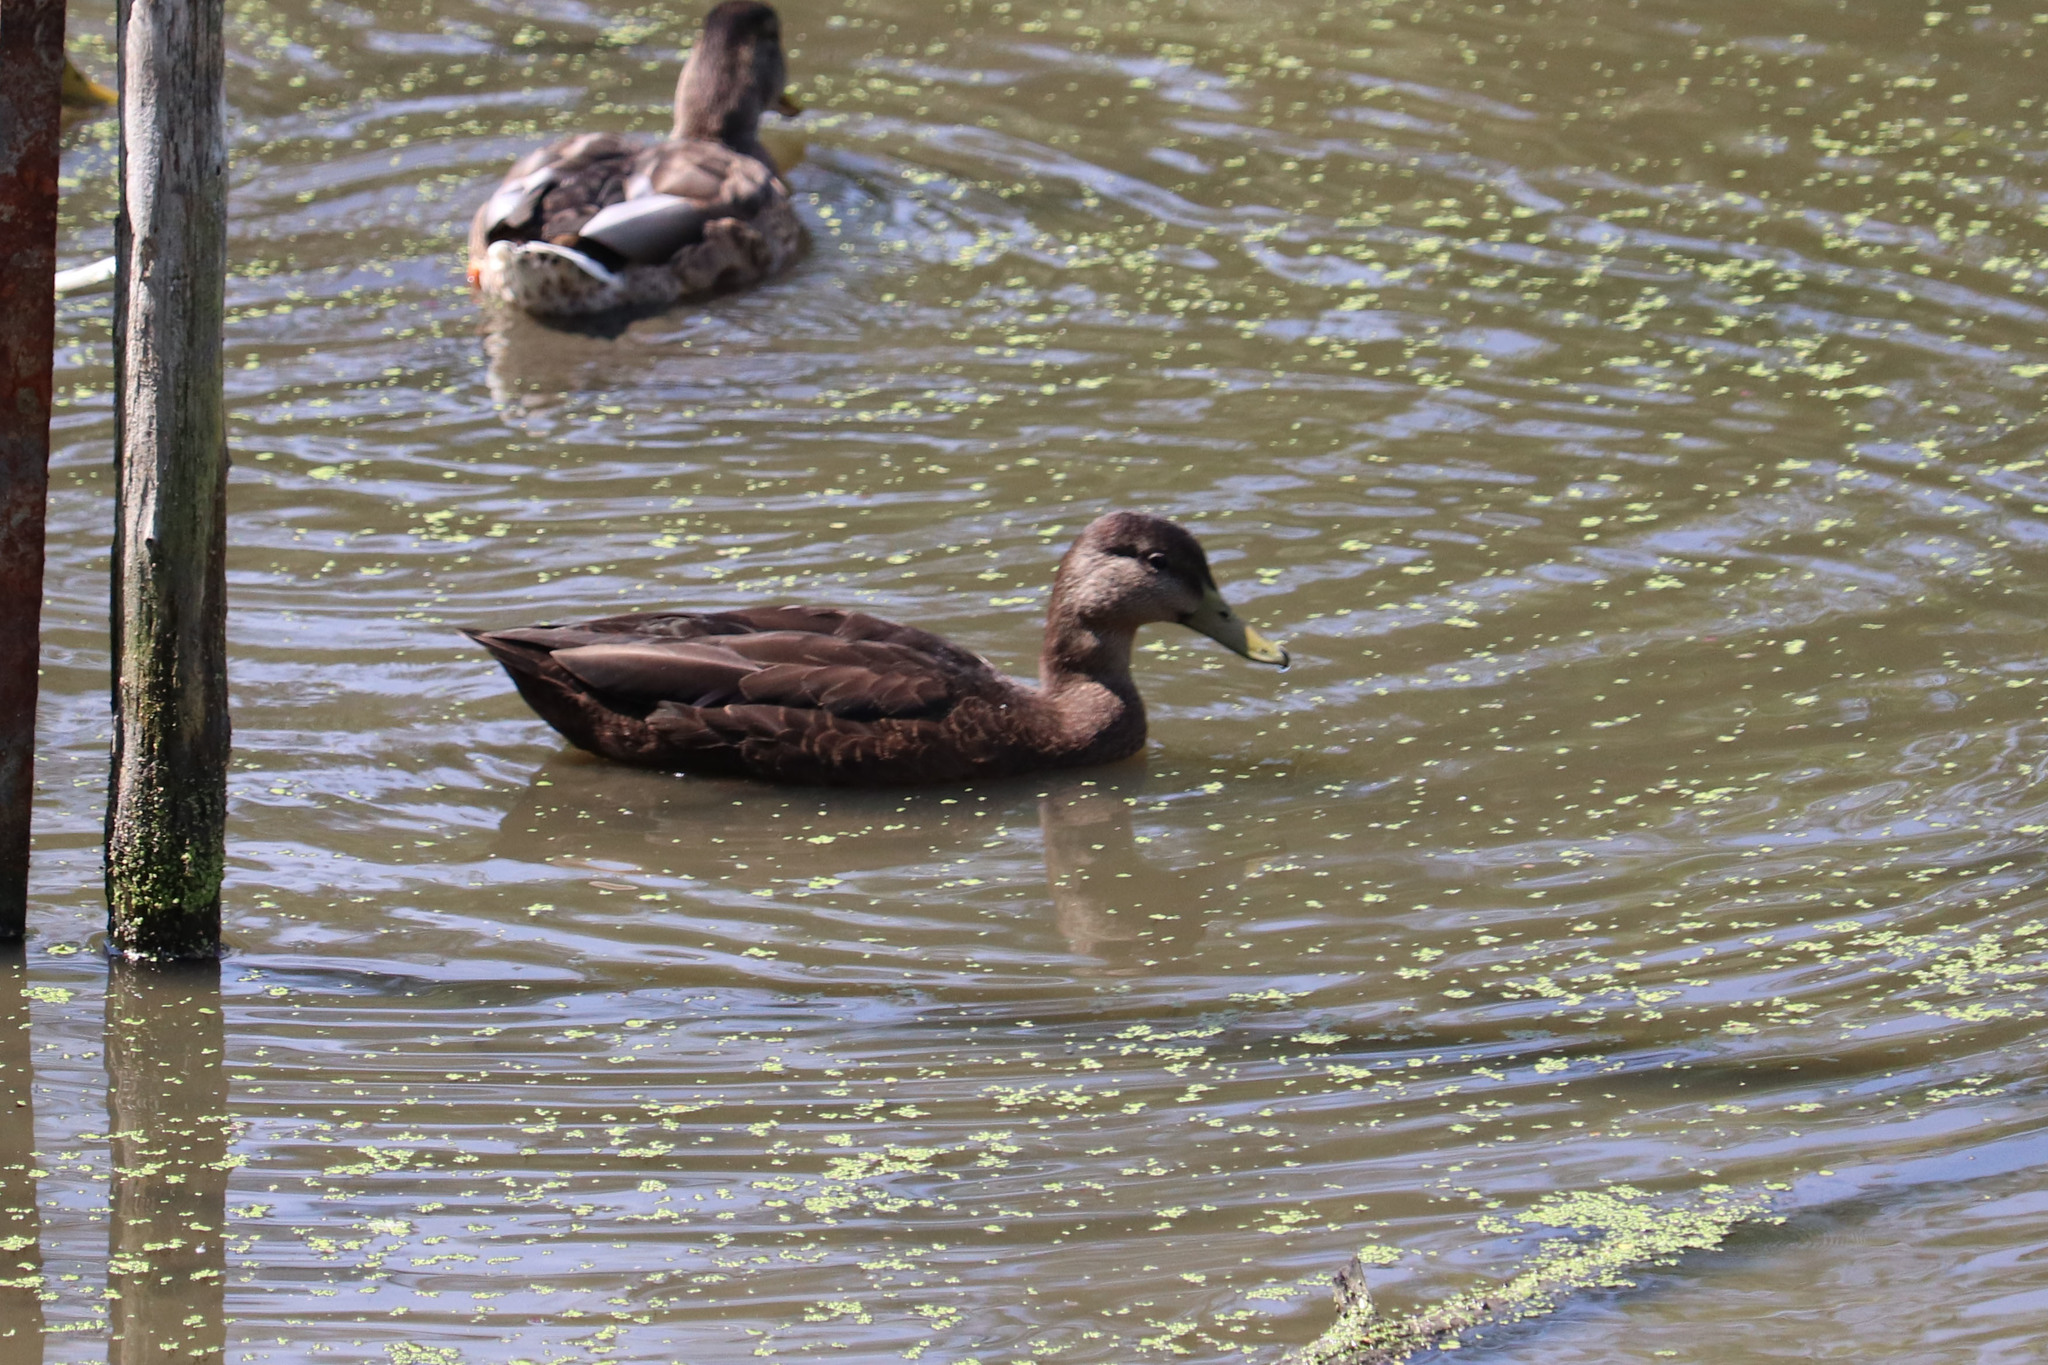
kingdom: Animalia
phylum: Chordata
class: Aves
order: Anseriformes
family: Anatidae
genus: Anas
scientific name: Anas rubripes
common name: American black duck
